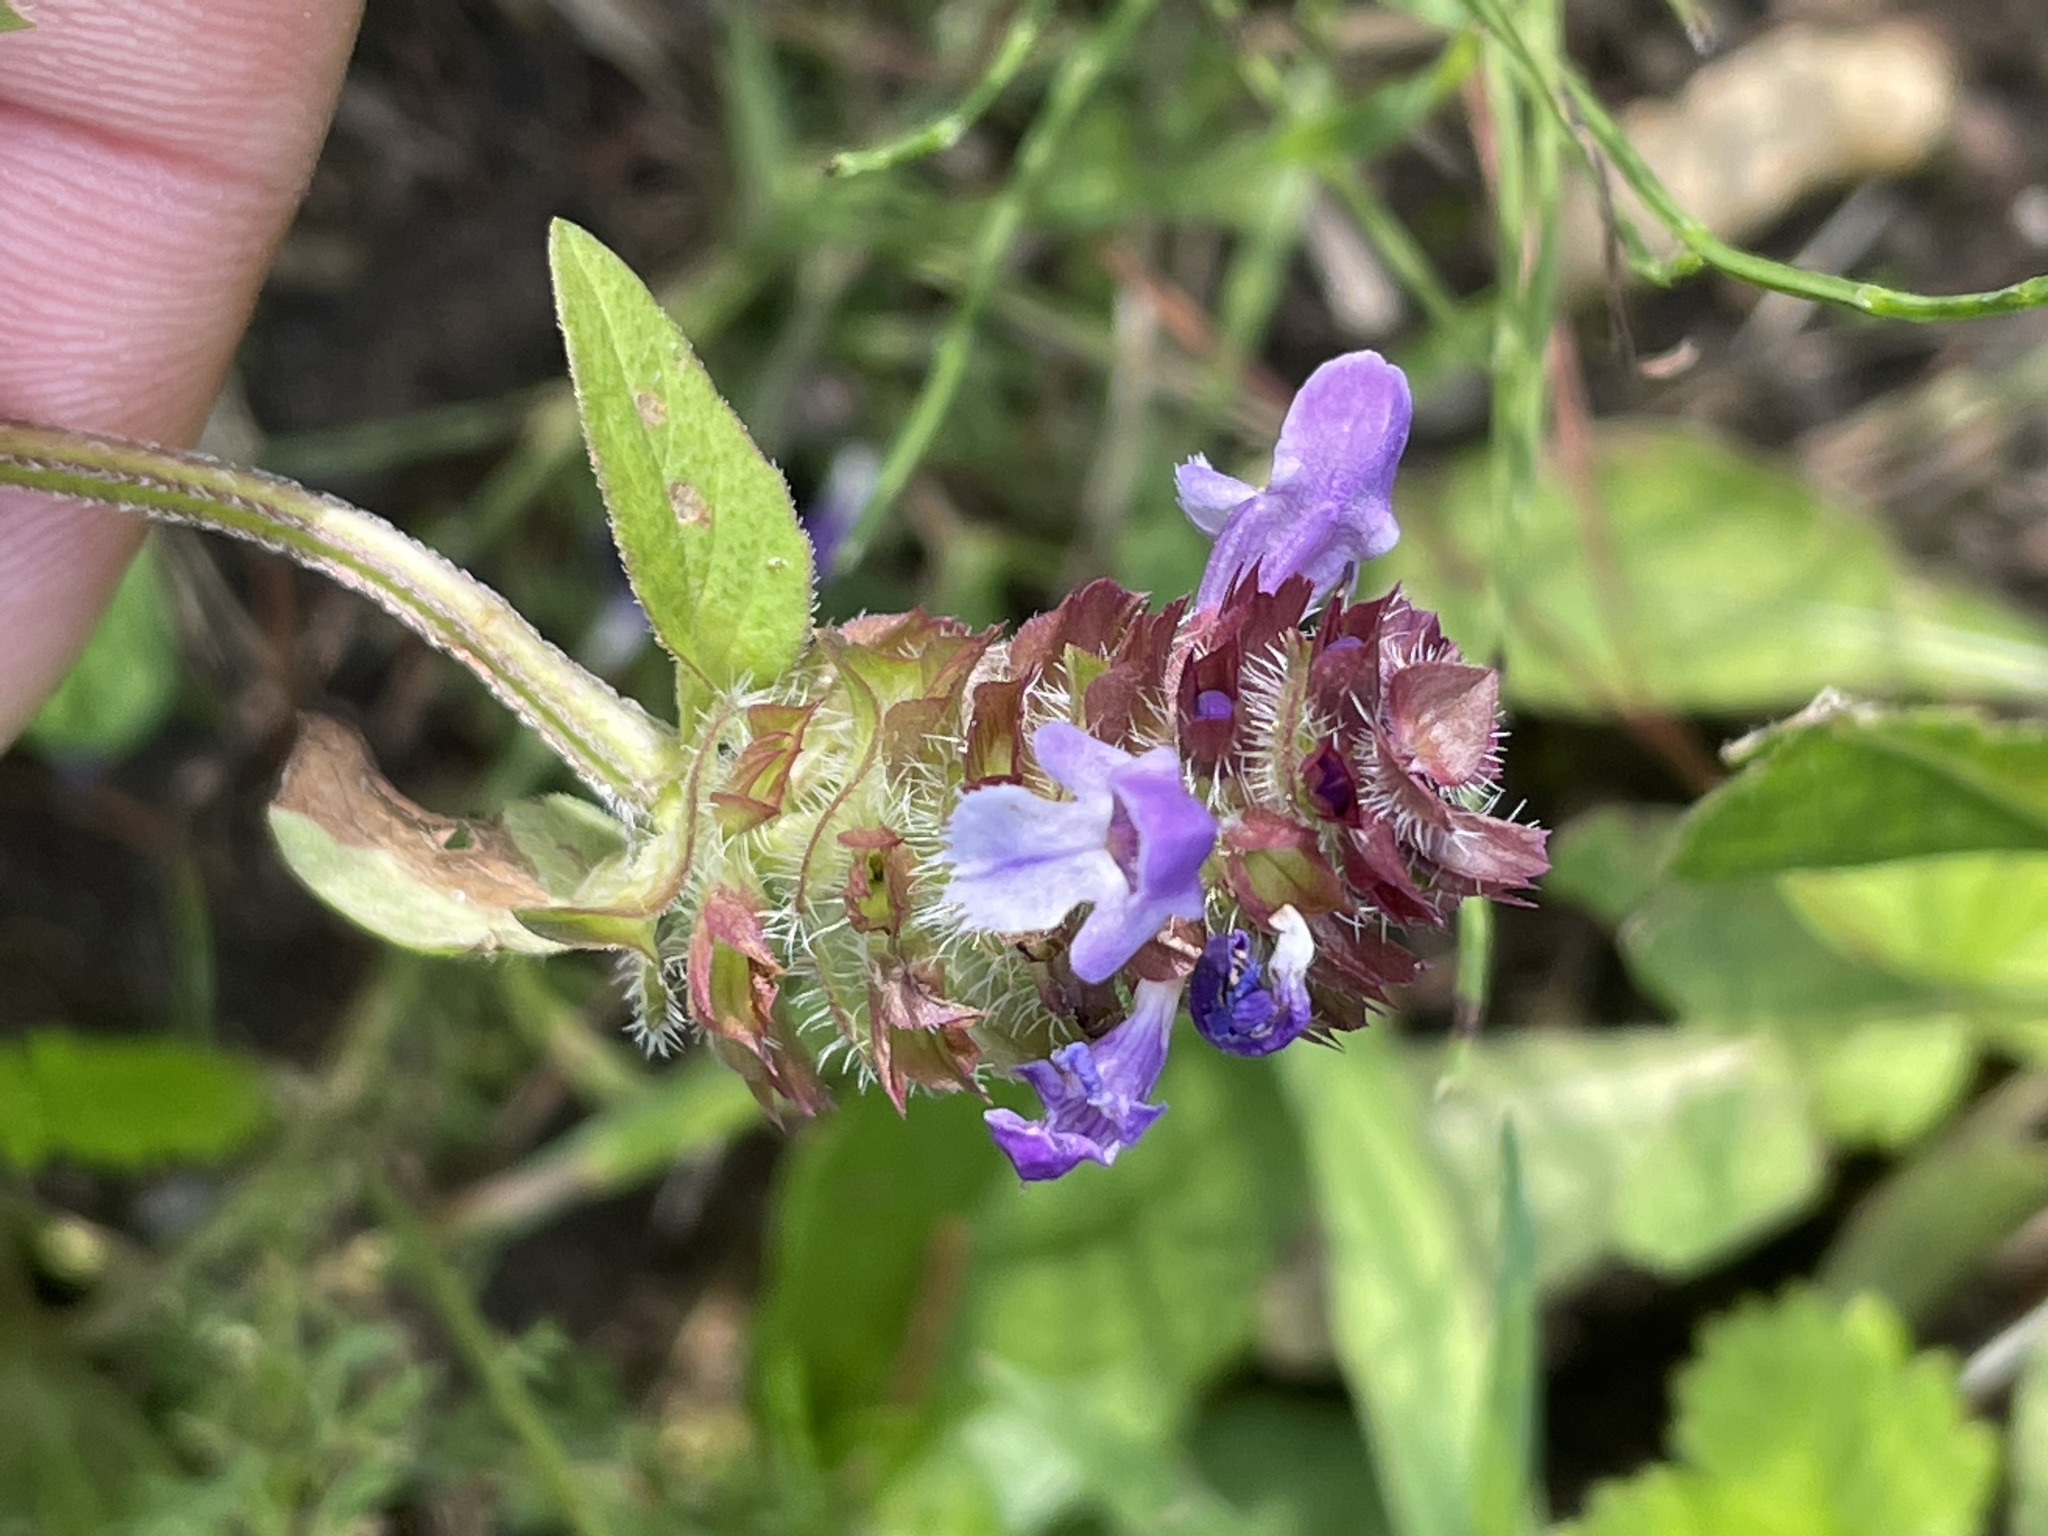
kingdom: Plantae
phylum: Tracheophyta
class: Magnoliopsida
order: Lamiales
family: Lamiaceae
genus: Prunella
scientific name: Prunella vulgaris
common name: Heal-all
